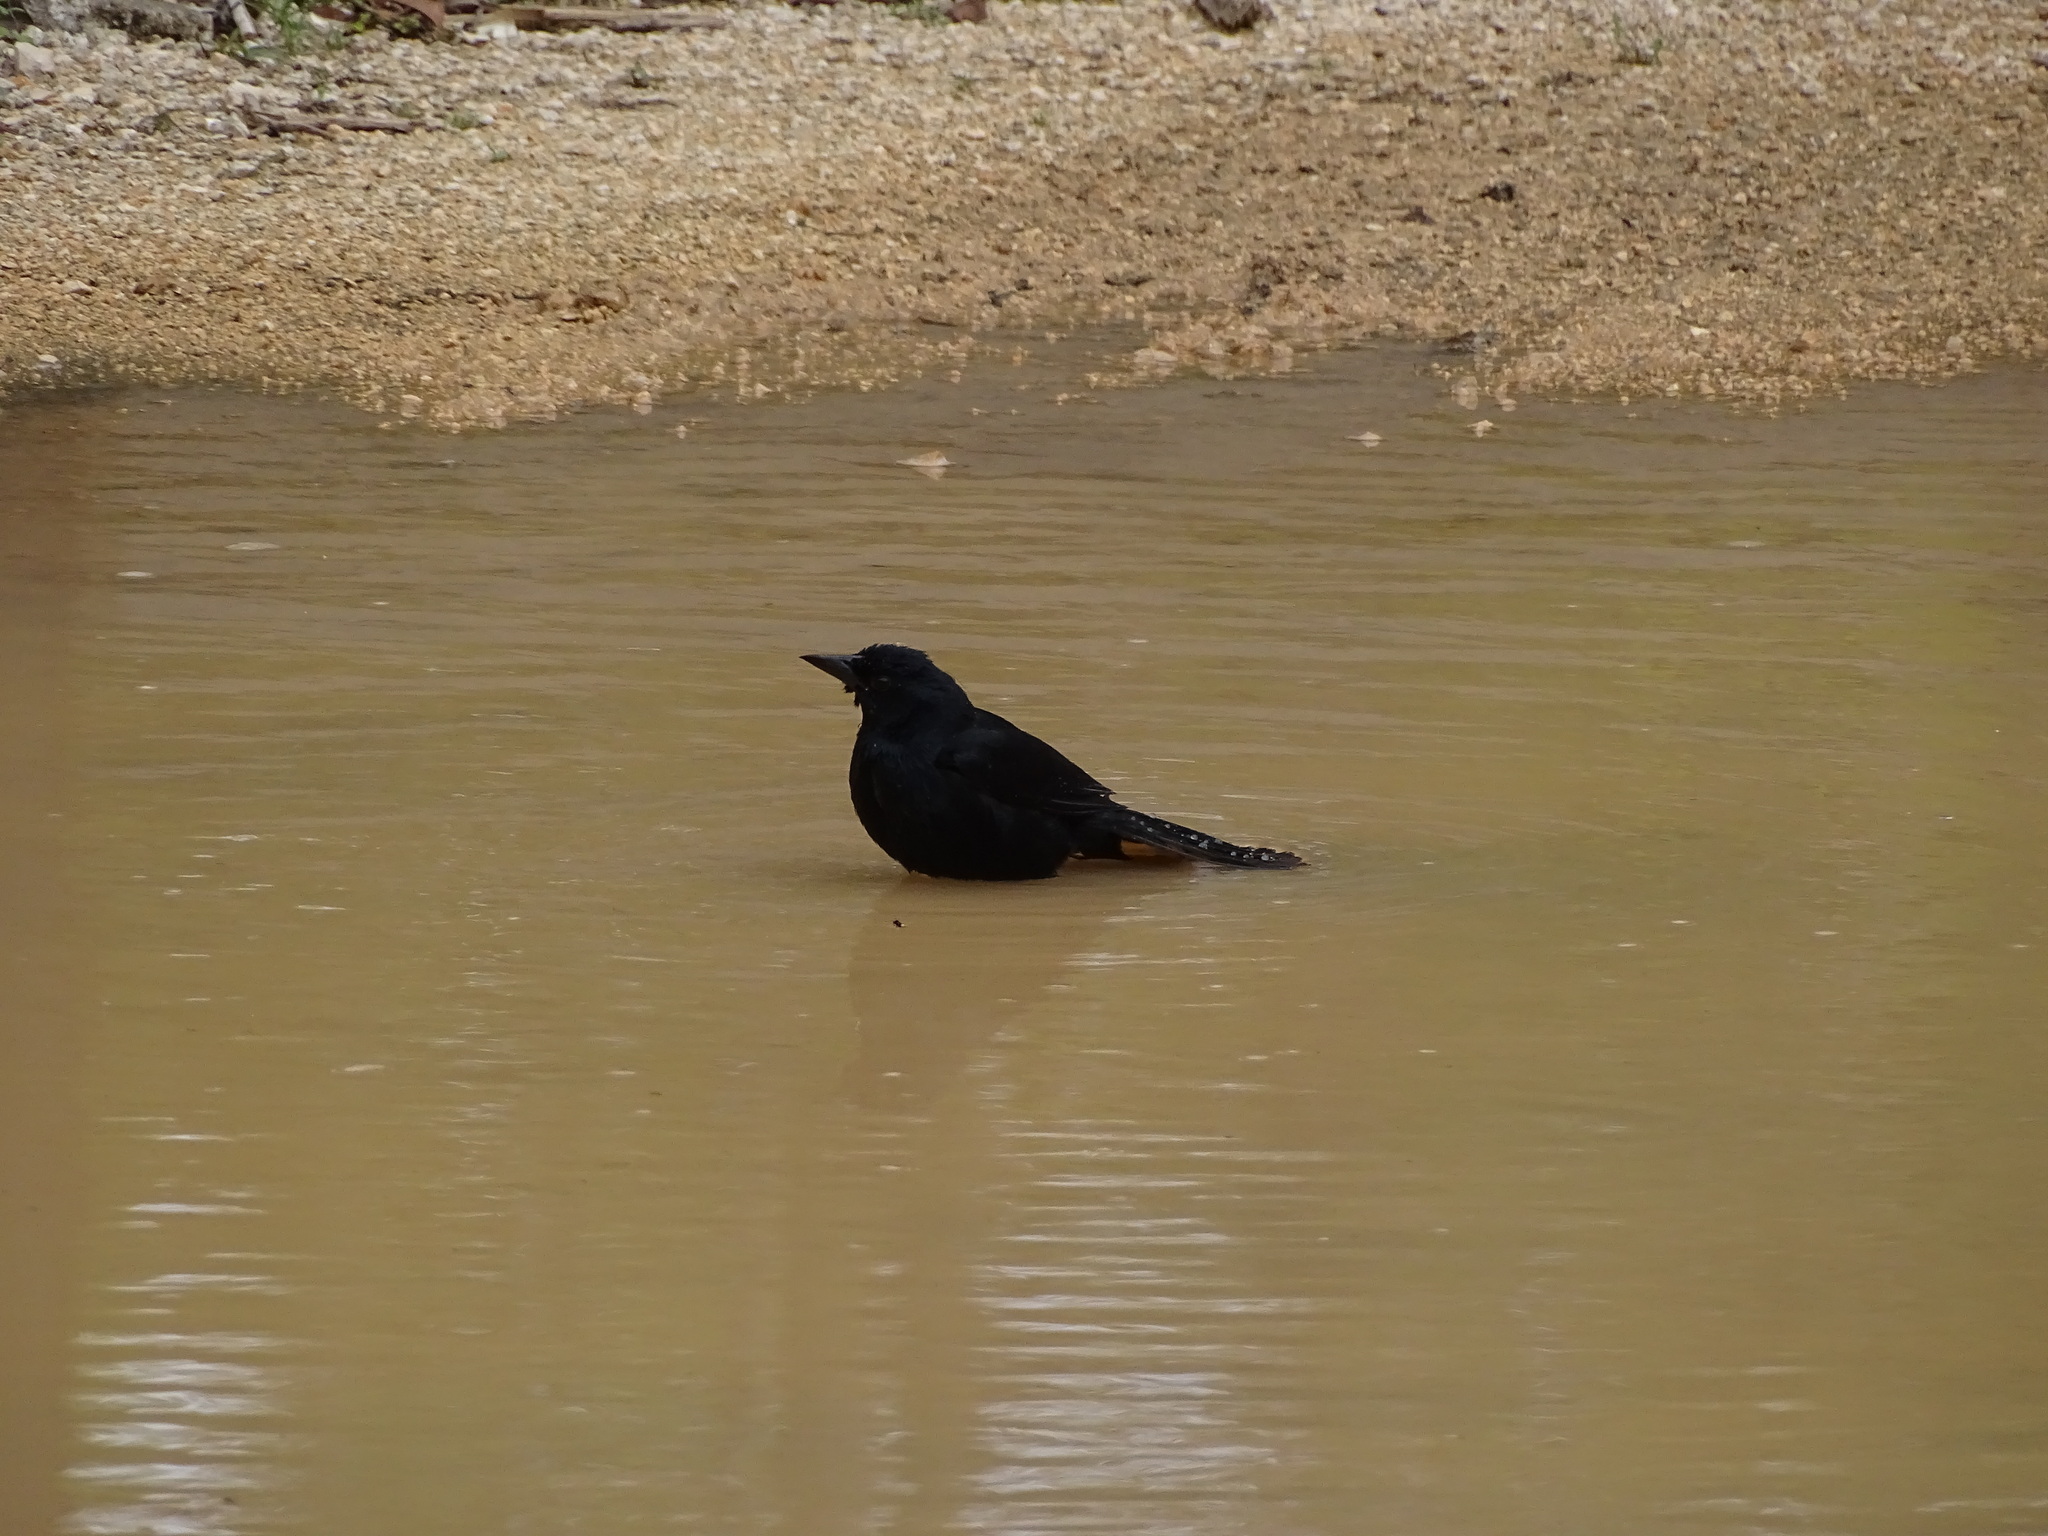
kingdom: Animalia
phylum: Chordata
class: Aves
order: Passeriformes
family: Icteridae
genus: Dives
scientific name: Dives dives
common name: Melodious blackbird
